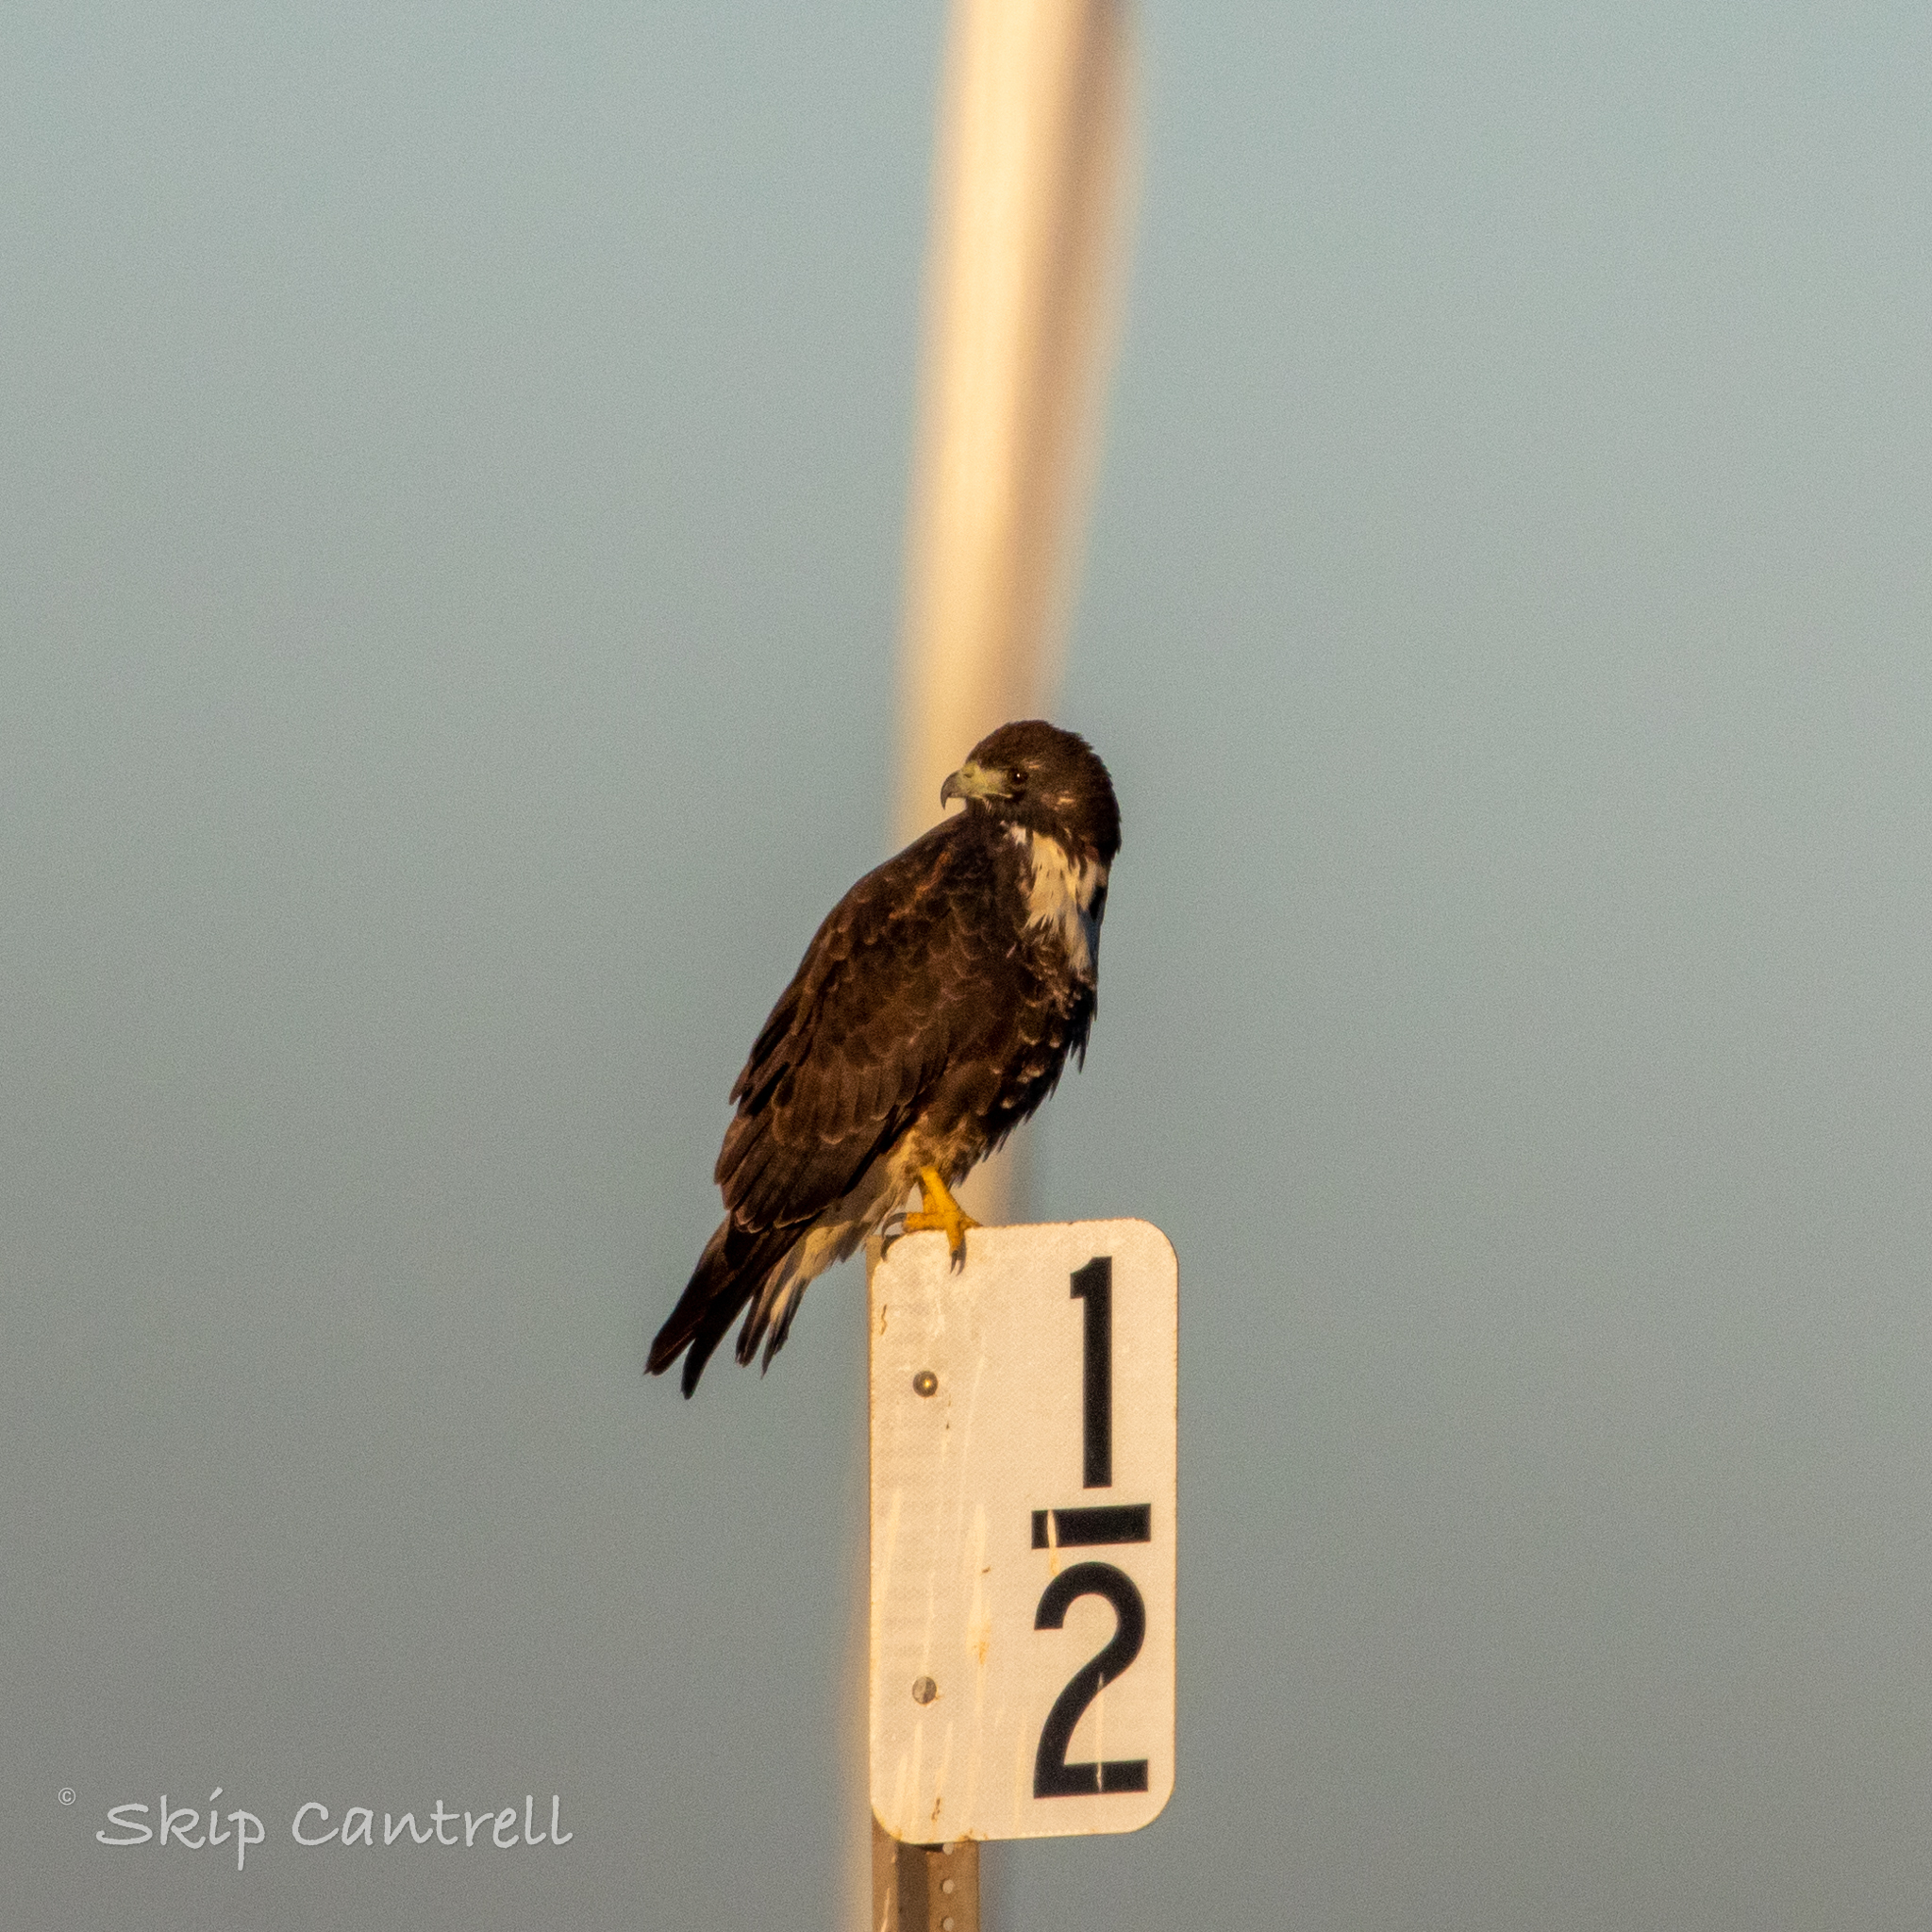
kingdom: Animalia
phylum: Chordata
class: Aves
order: Accipitriformes
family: Accipitridae
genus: Buteo
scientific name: Buteo albicaudatus
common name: White-tailed hawk
